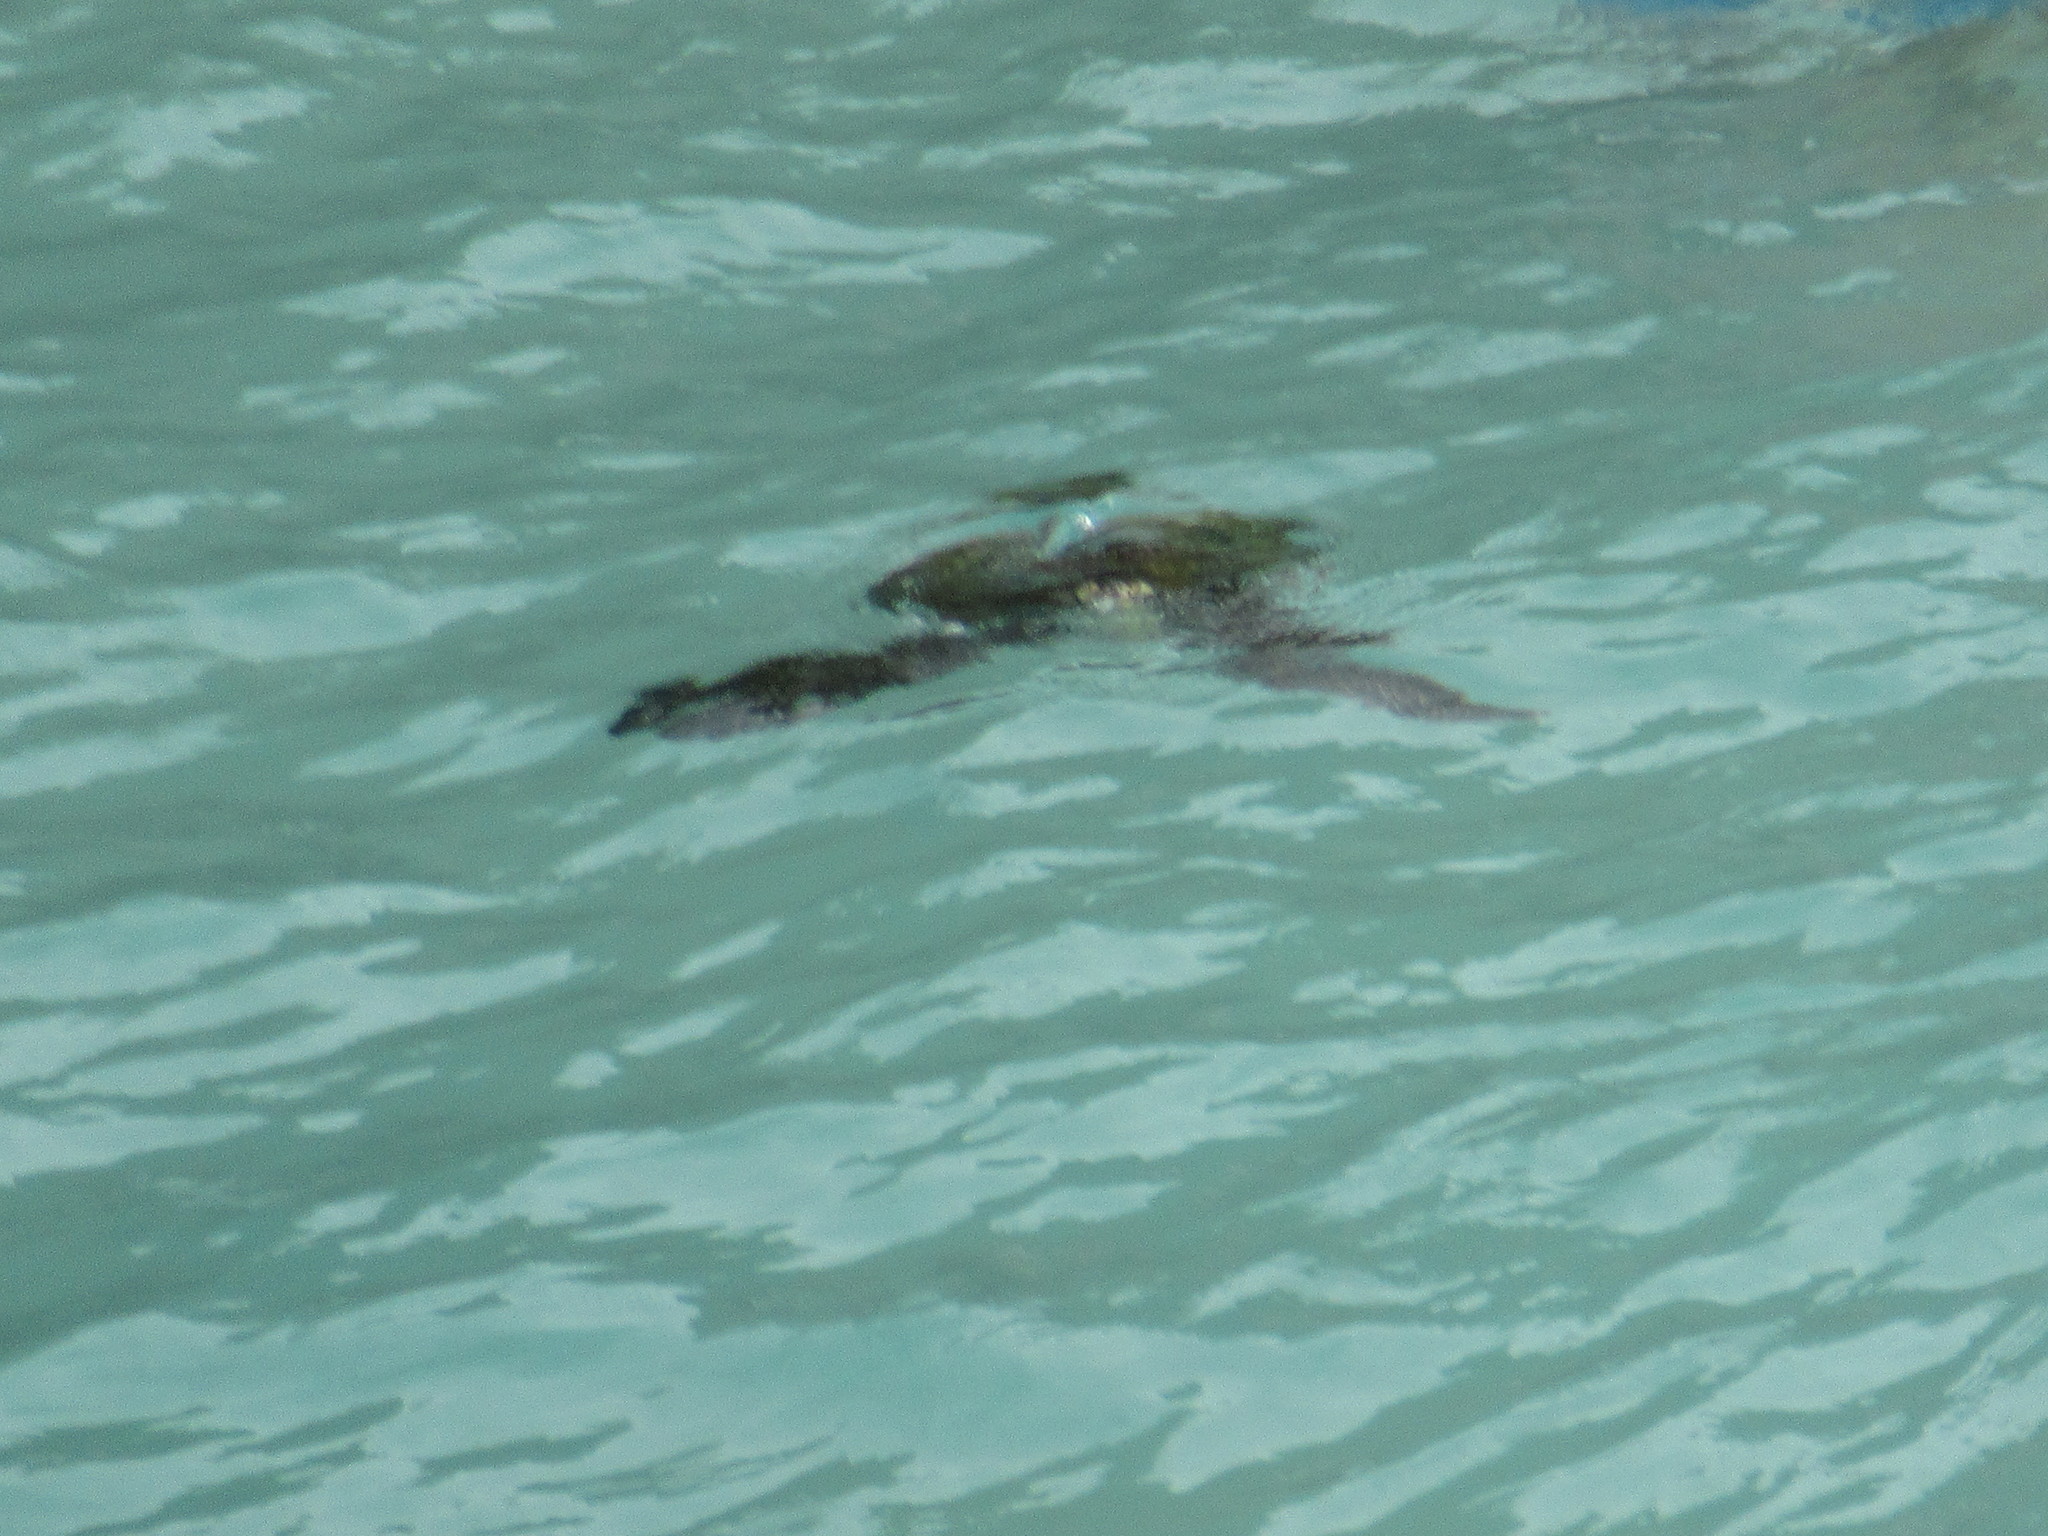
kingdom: Animalia
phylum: Chordata
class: Testudines
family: Cheloniidae
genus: Chelonia
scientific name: Chelonia mydas
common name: Green turtle
